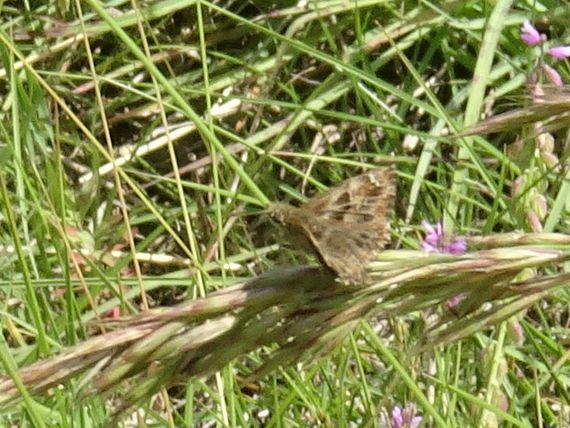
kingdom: Animalia
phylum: Arthropoda
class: Insecta
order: Lepidoptera
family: Hesperiidae
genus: Carcharodus
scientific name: Carcharodus alceae
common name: Mallow skipper
